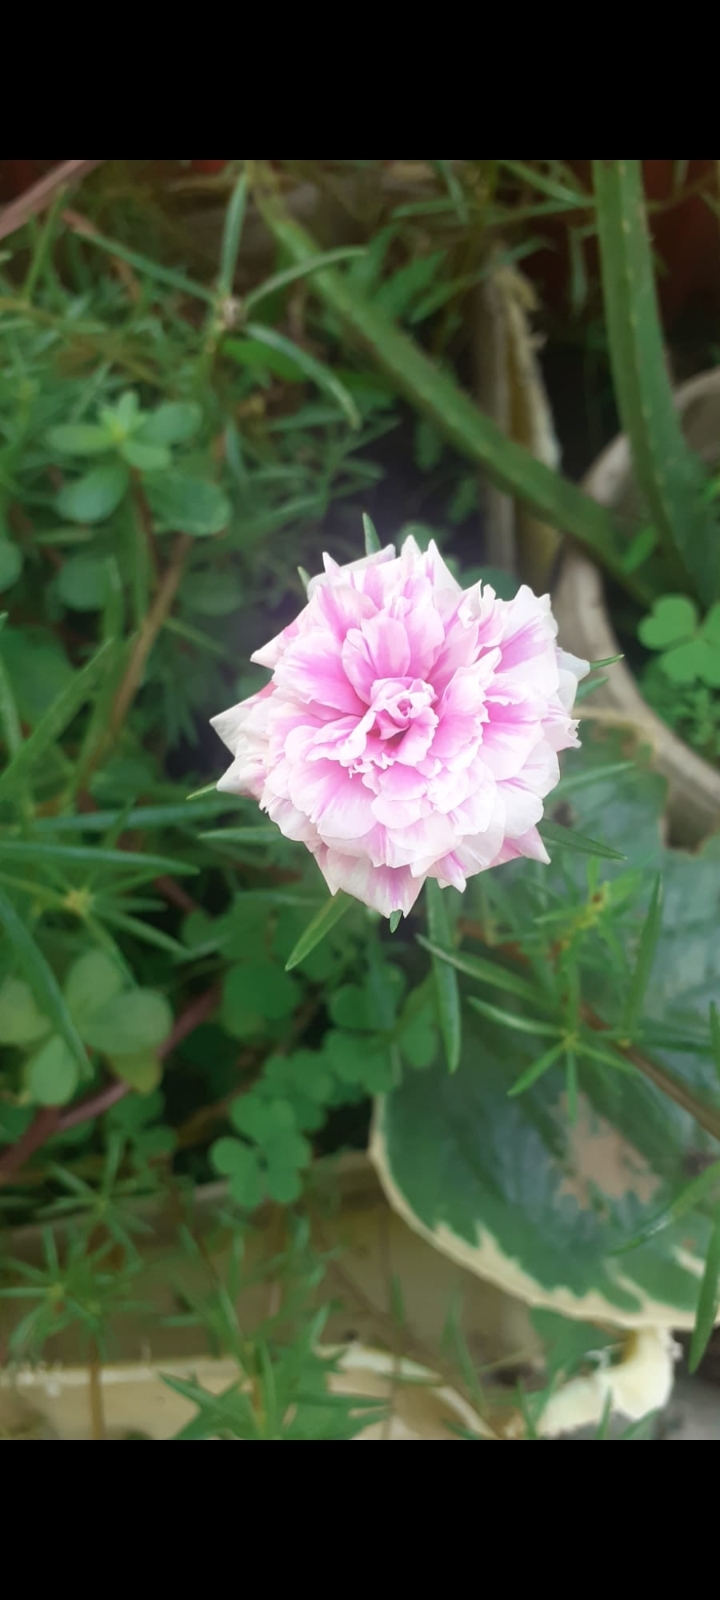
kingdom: Plantae
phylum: Tracheophyta
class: Magnoliopsida
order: Caryophyllales
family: Portulacaceae
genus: Portulaca
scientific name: Portulaca grandiflora
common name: Moss-rose
